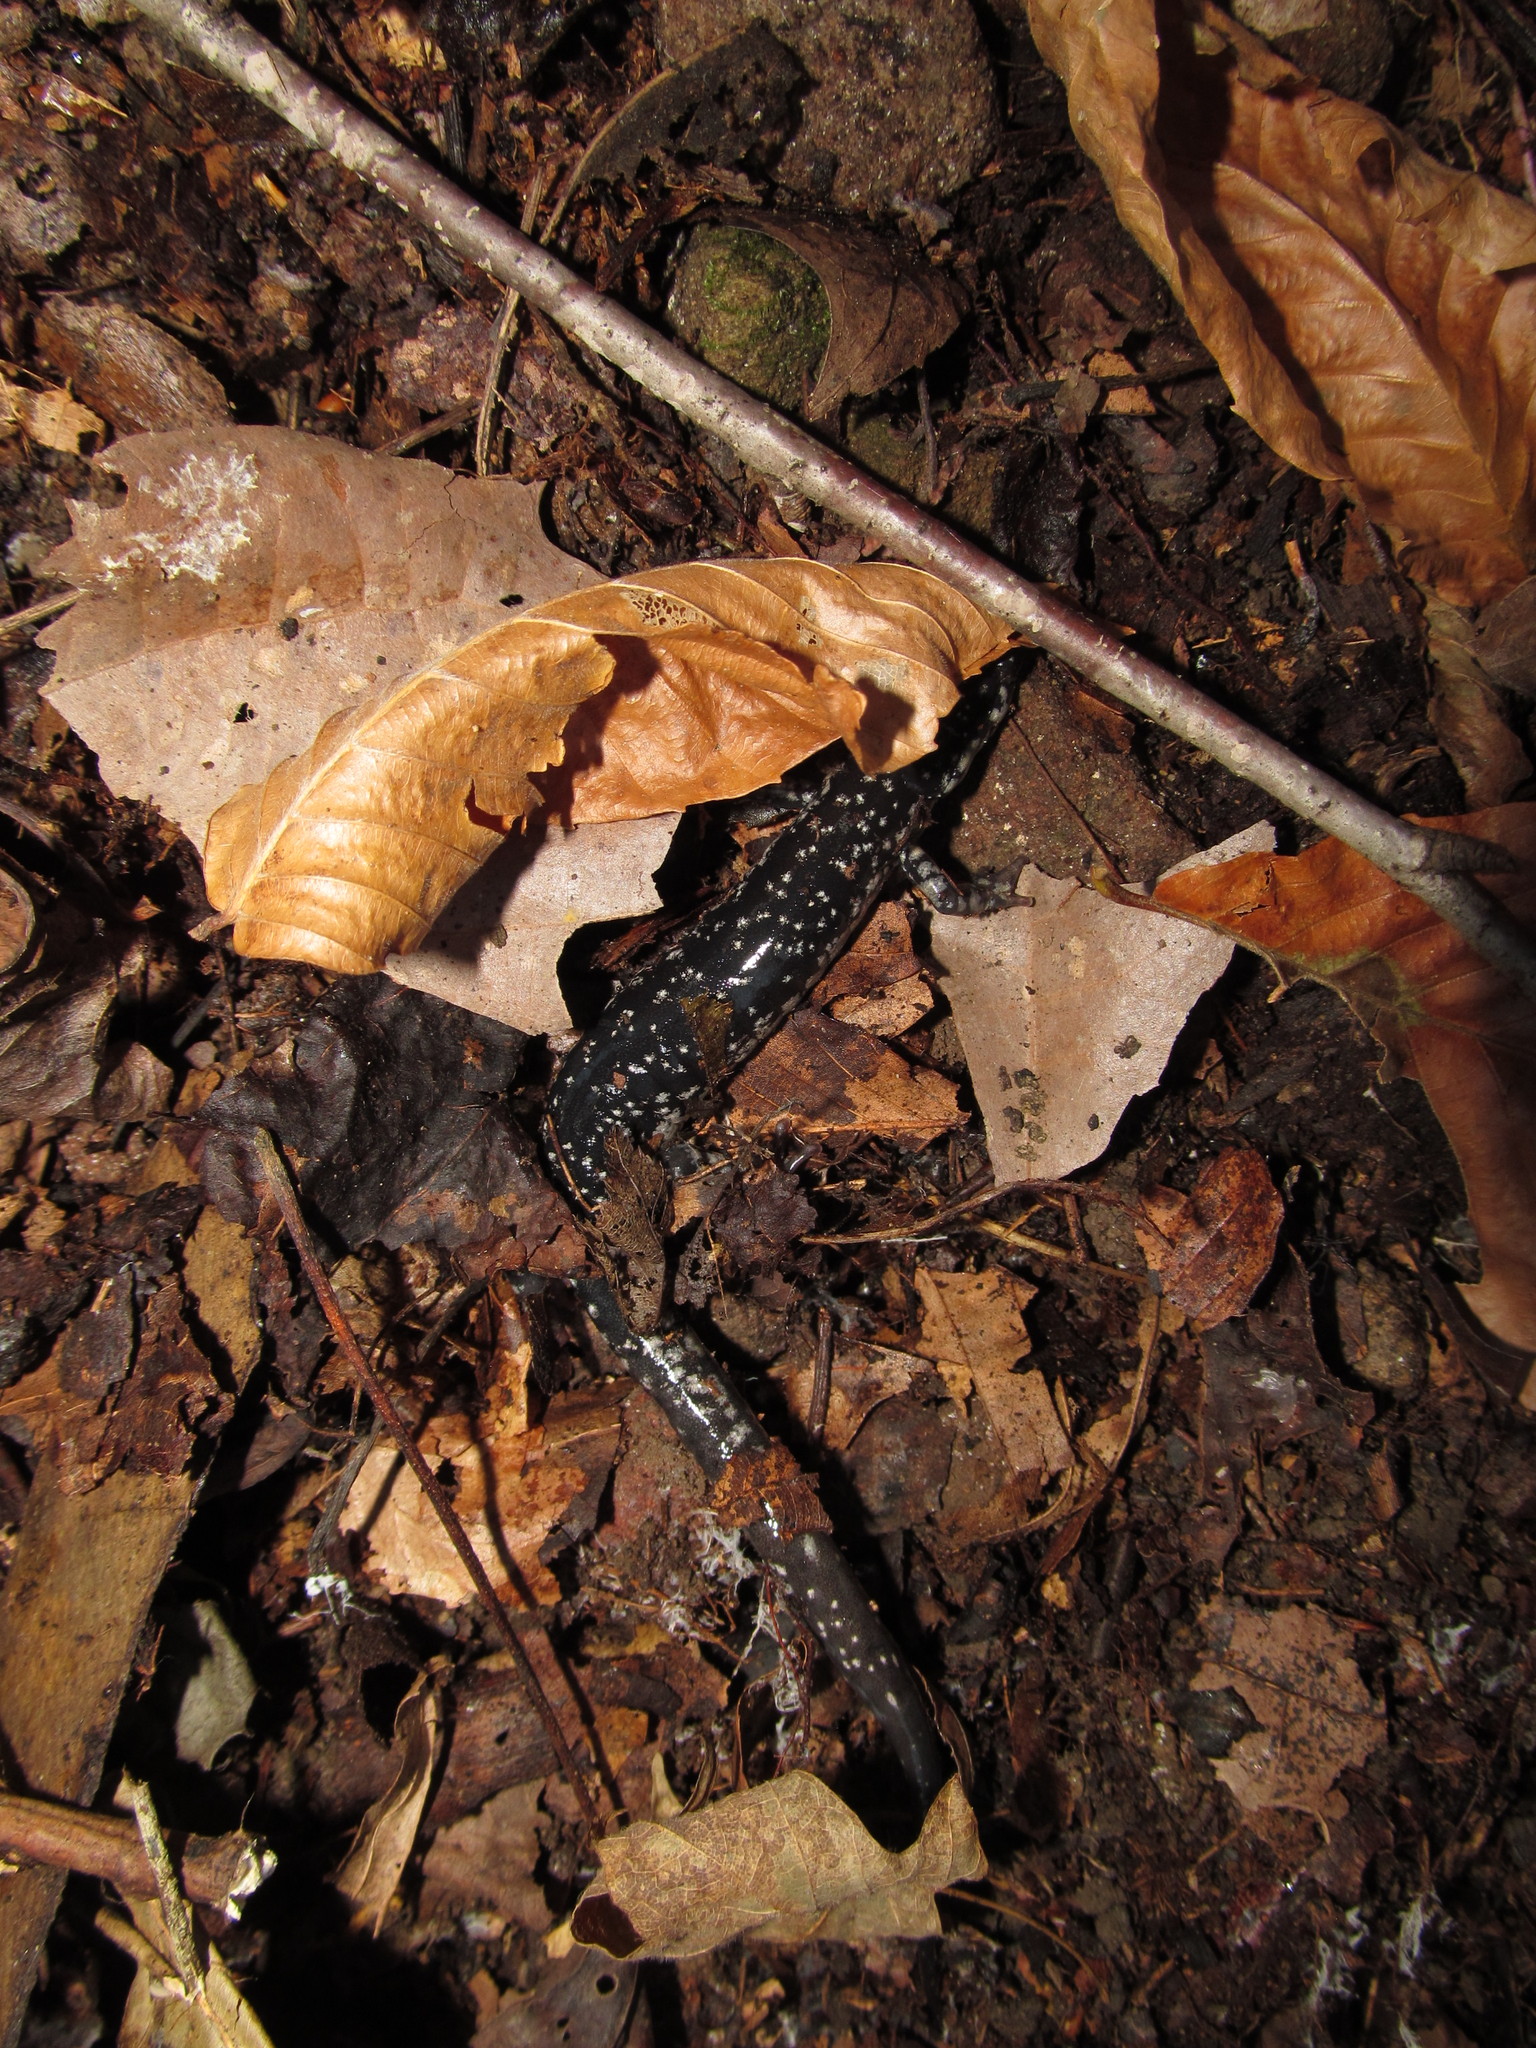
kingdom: Animalia
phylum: Chordata
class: Amphibia
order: Caudata
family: Plethodontidae
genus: Plethodon
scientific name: Plethodon glutinosus
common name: Northern slimy salamander
